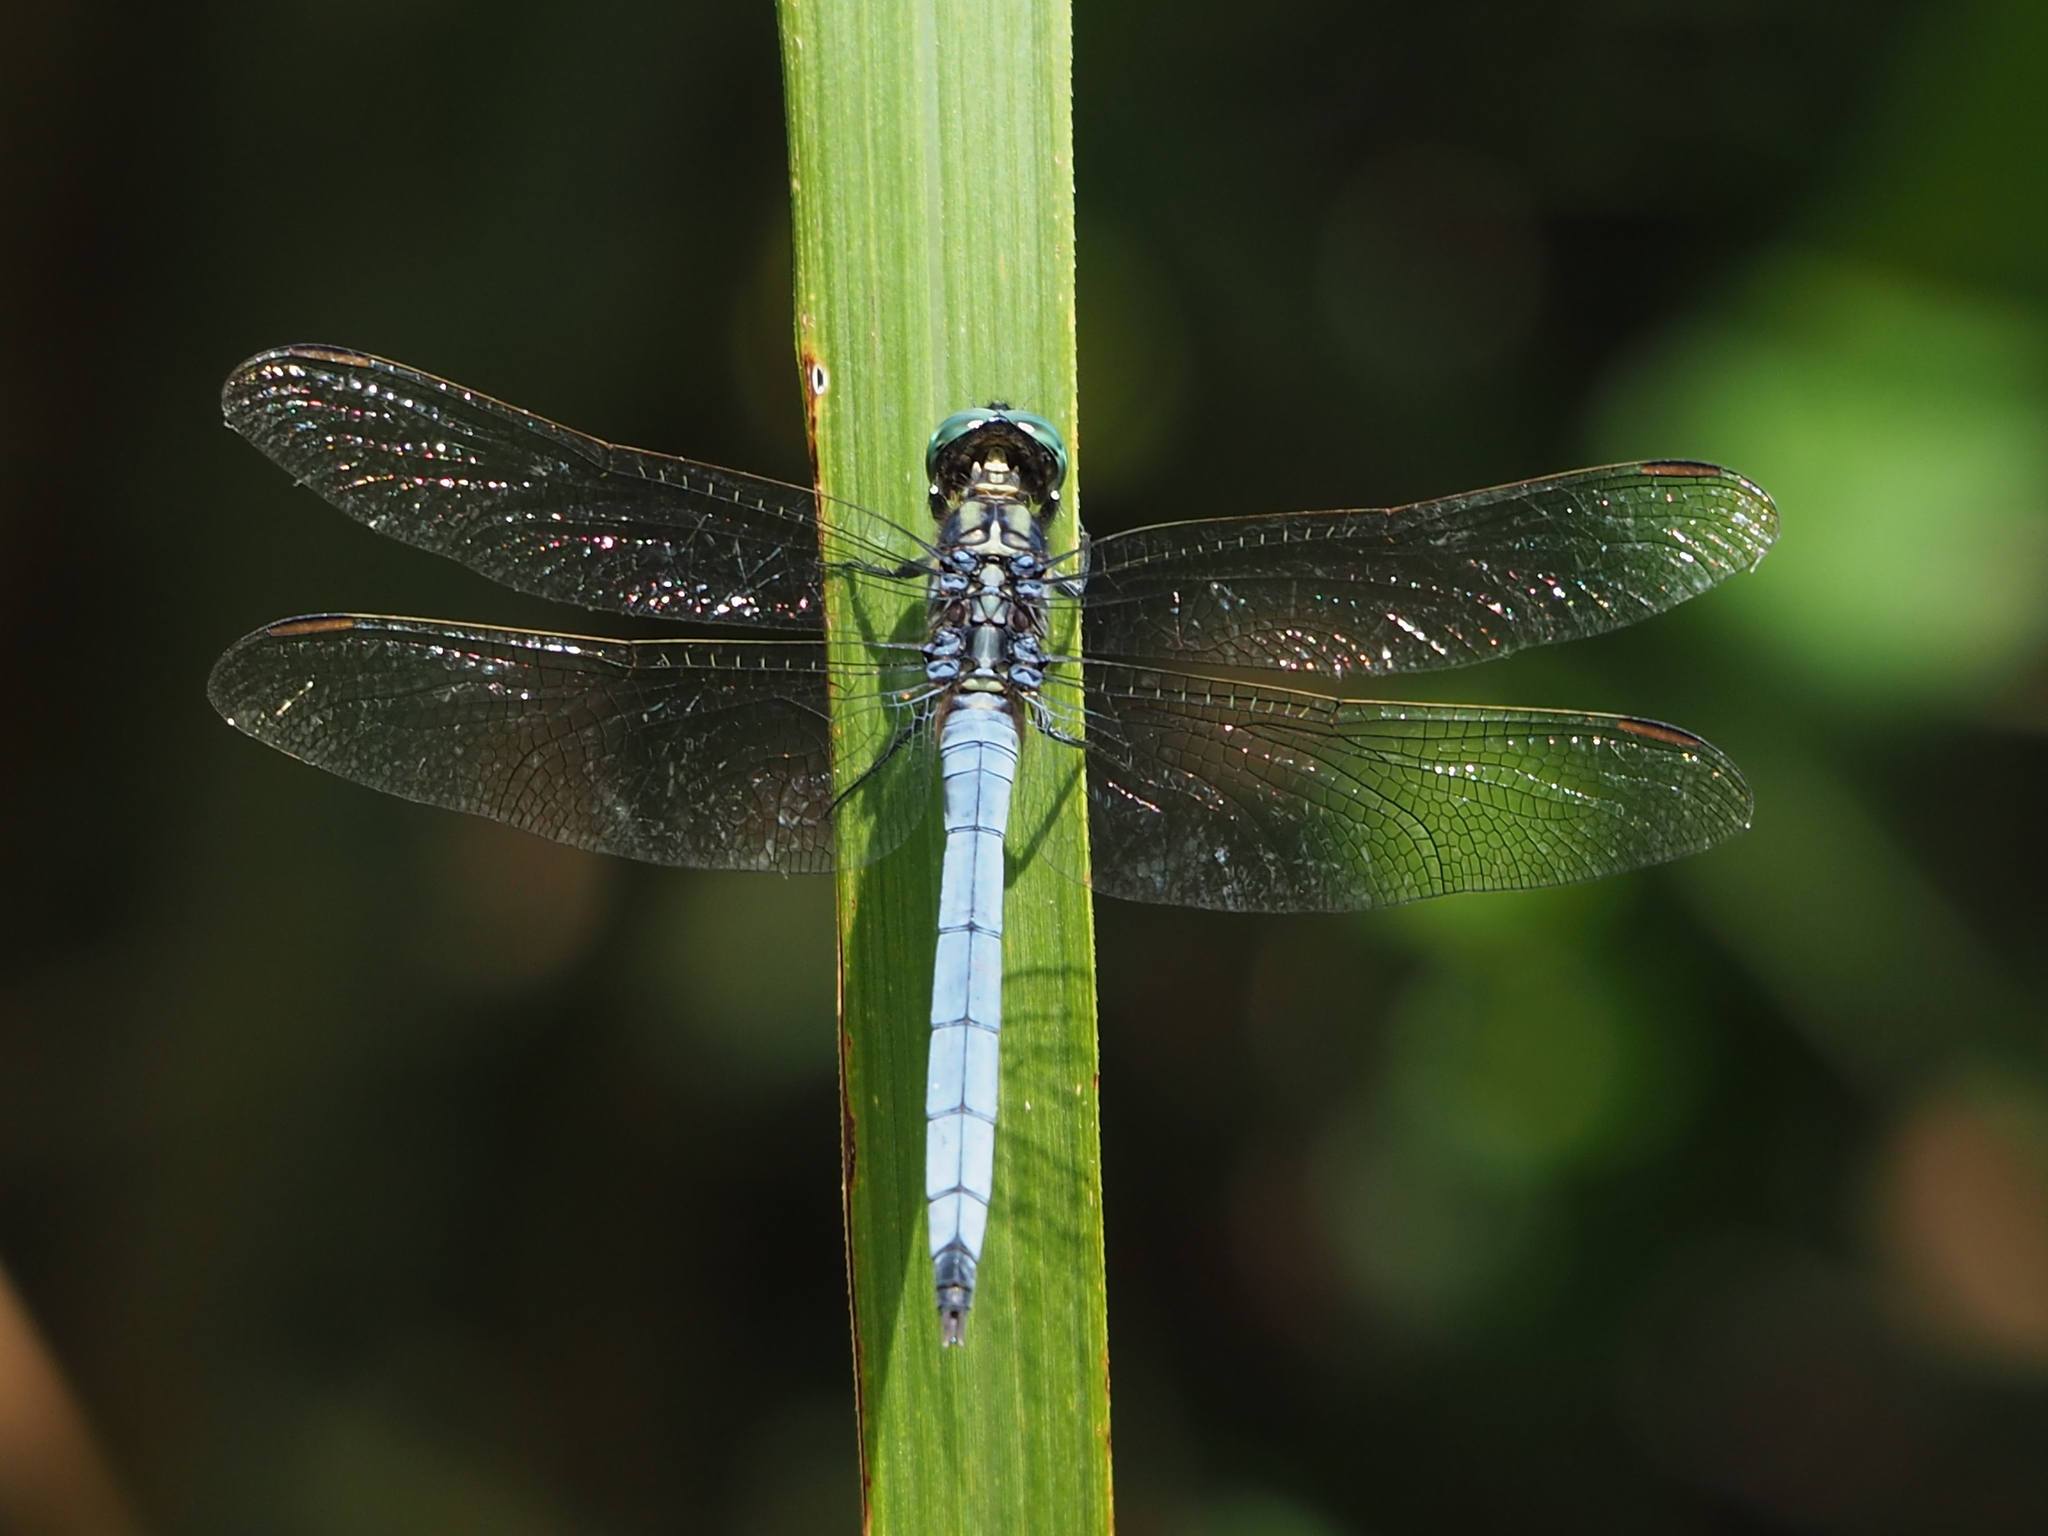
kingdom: Animalia
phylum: Arthropoda
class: Insecta
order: Odonata
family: Libellulidae
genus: Orthetrum
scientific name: Orthetrum luzonicum
